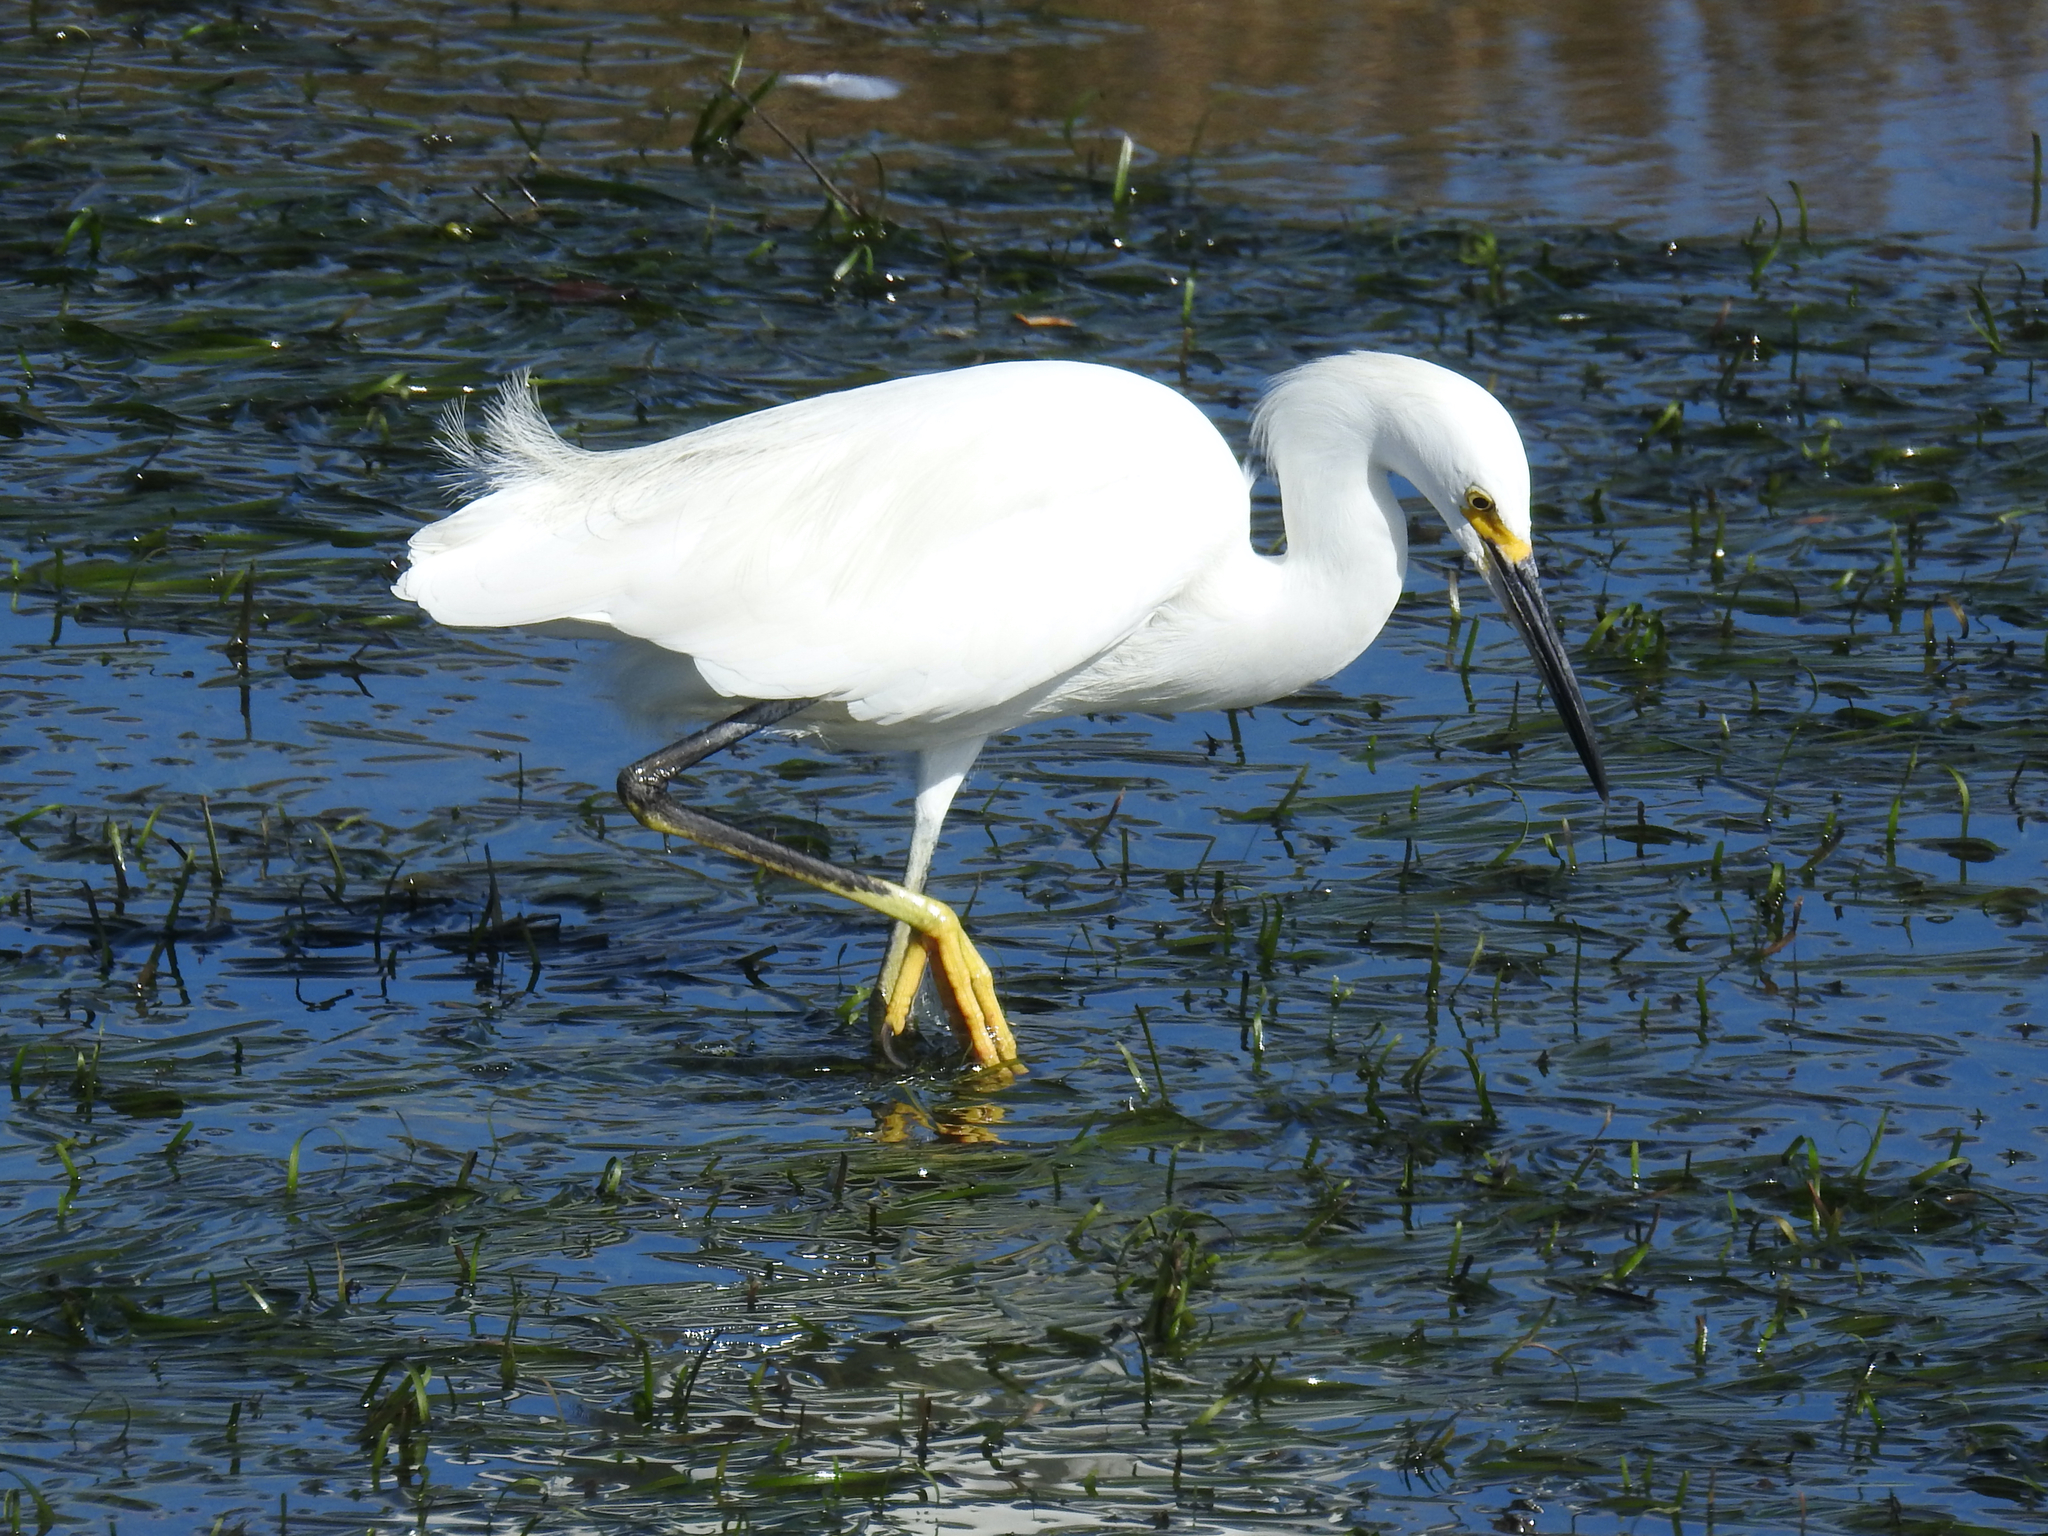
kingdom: Animalia
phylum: Chordata
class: Aves
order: Pelecaniformes
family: Ardeidae
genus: Egretta
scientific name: Egretta thula
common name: Snowy egret
